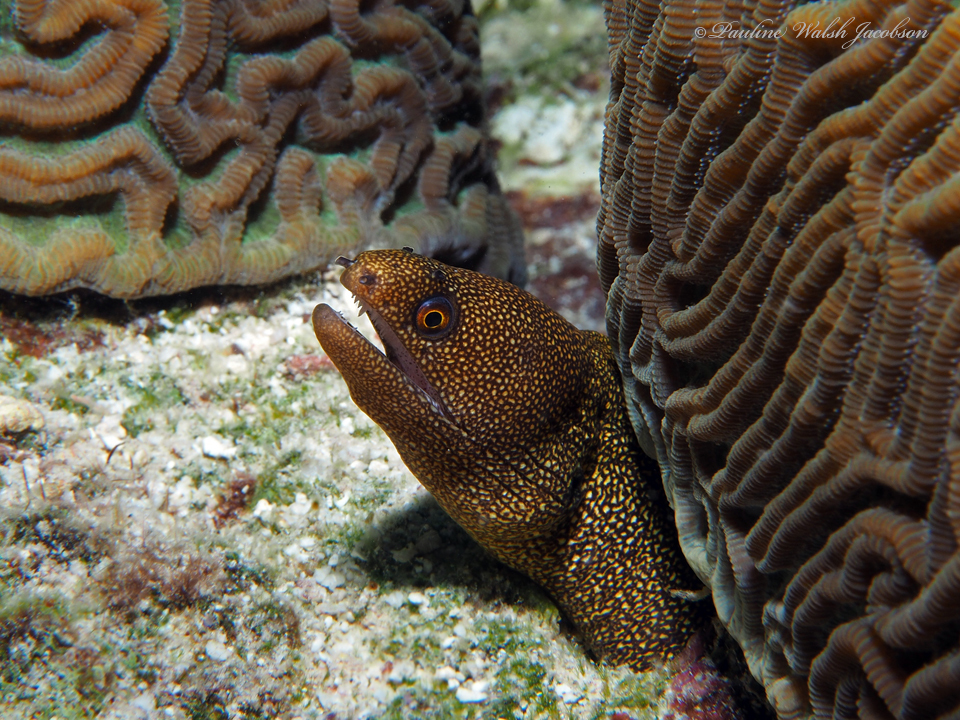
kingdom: Animalia
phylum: Chordata
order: Anguilliformes
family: Muraenidae
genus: Gymnothorax
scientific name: Gymnothorax miliaris
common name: Goldentail moray
